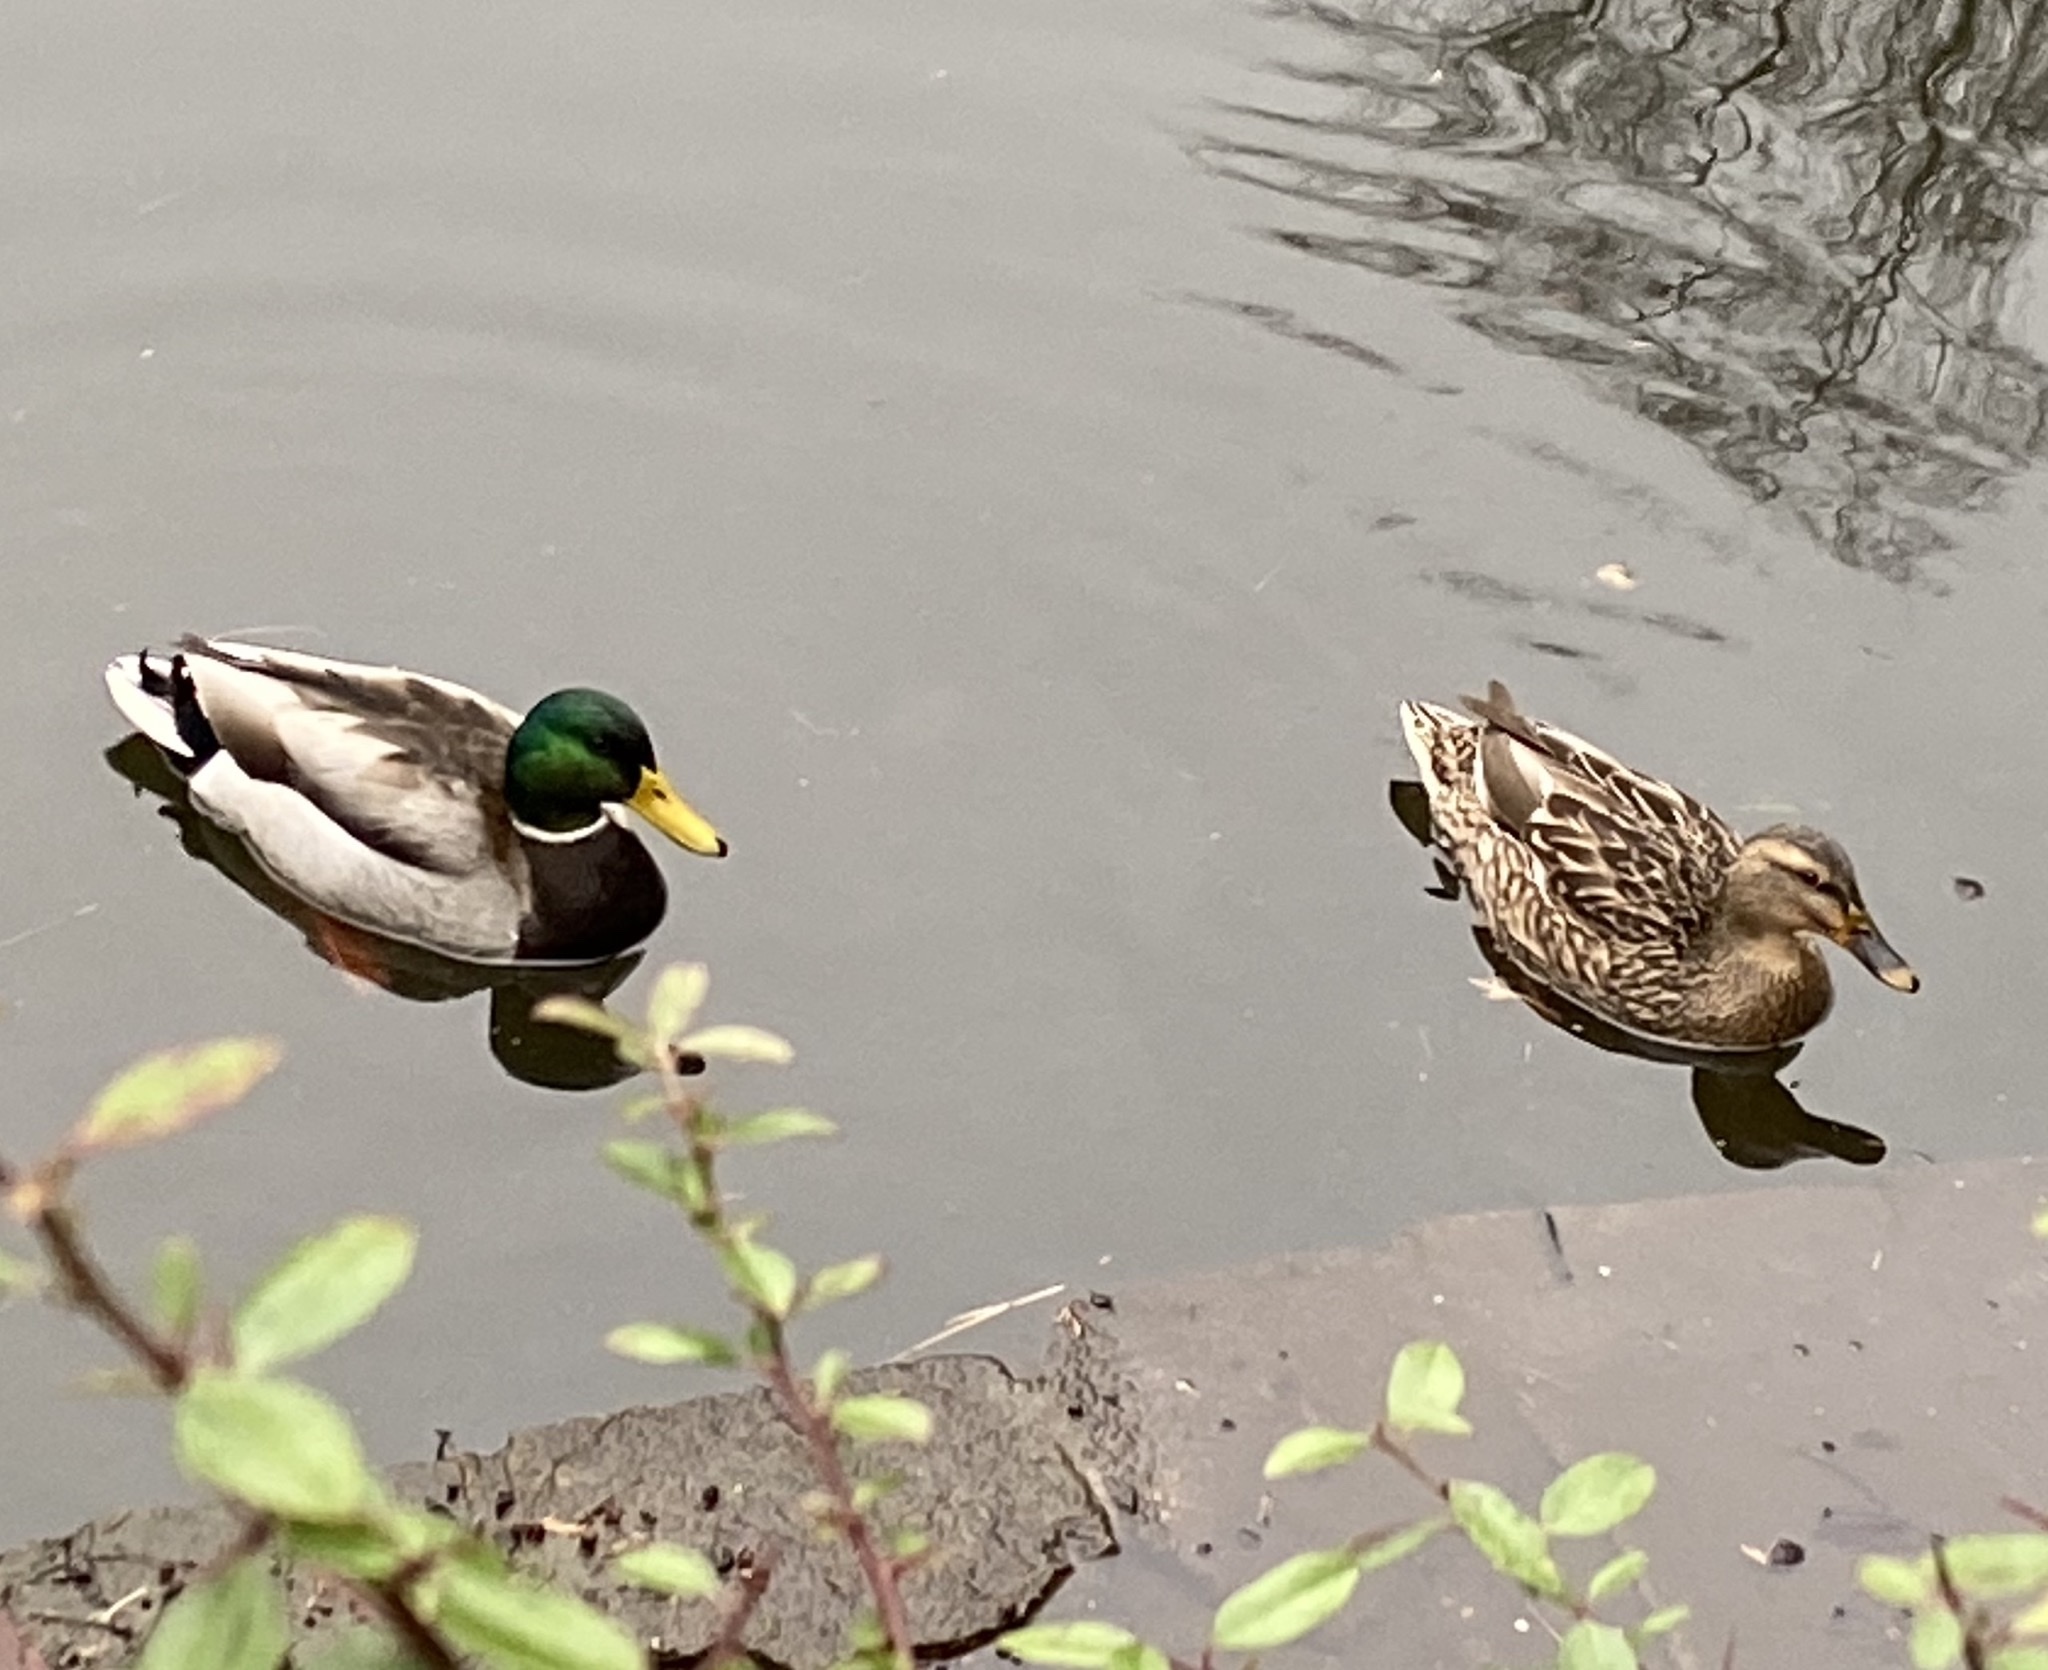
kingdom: Animalia
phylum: Chordata
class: Aves
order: Anseriformes
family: Anatidae
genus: Anas
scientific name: Anas platyrhynchos
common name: Mallard
